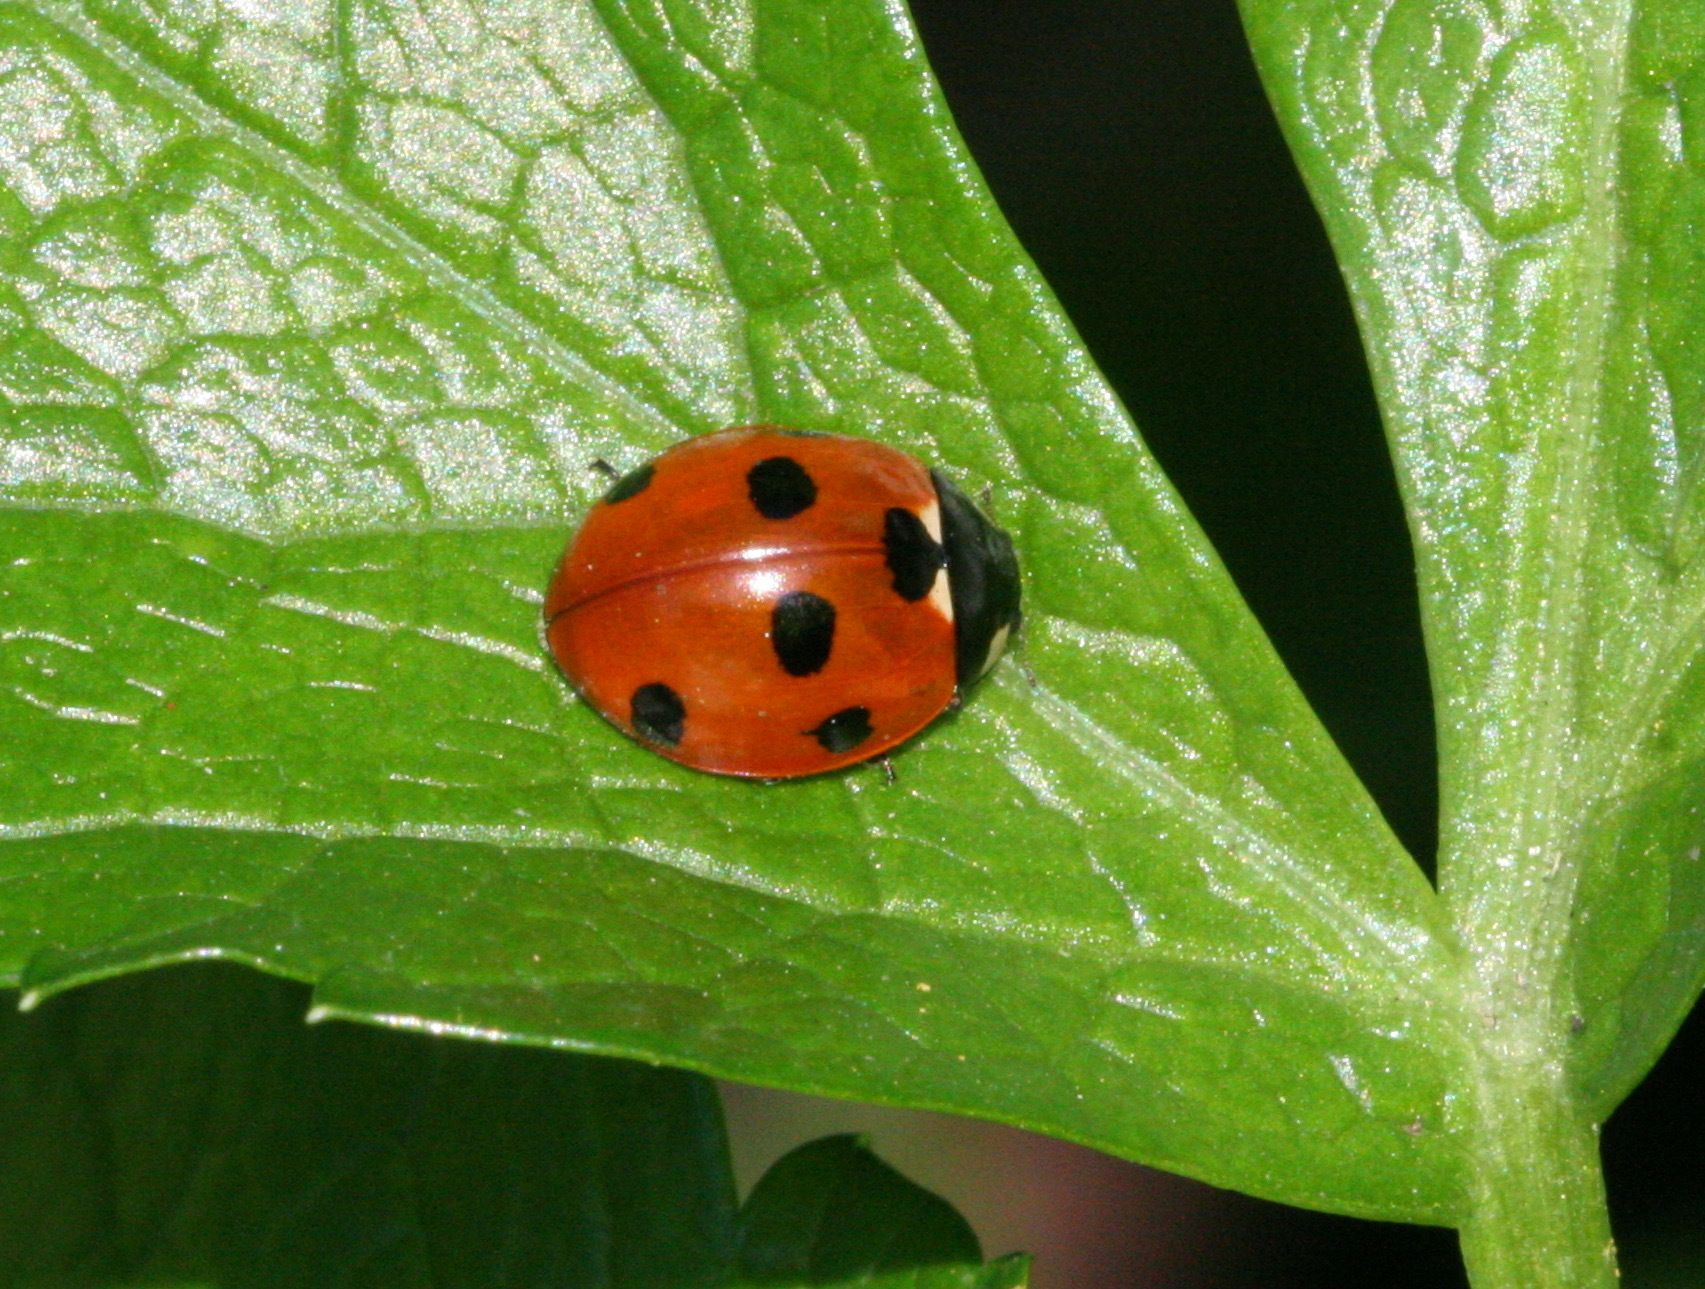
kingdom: Animalia
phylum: Arthropoda
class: Insecta
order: Coleoptera
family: Coccinellidae
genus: Coccinella
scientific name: Coccinella septempunctata
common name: Sevenspotted lady beetle
